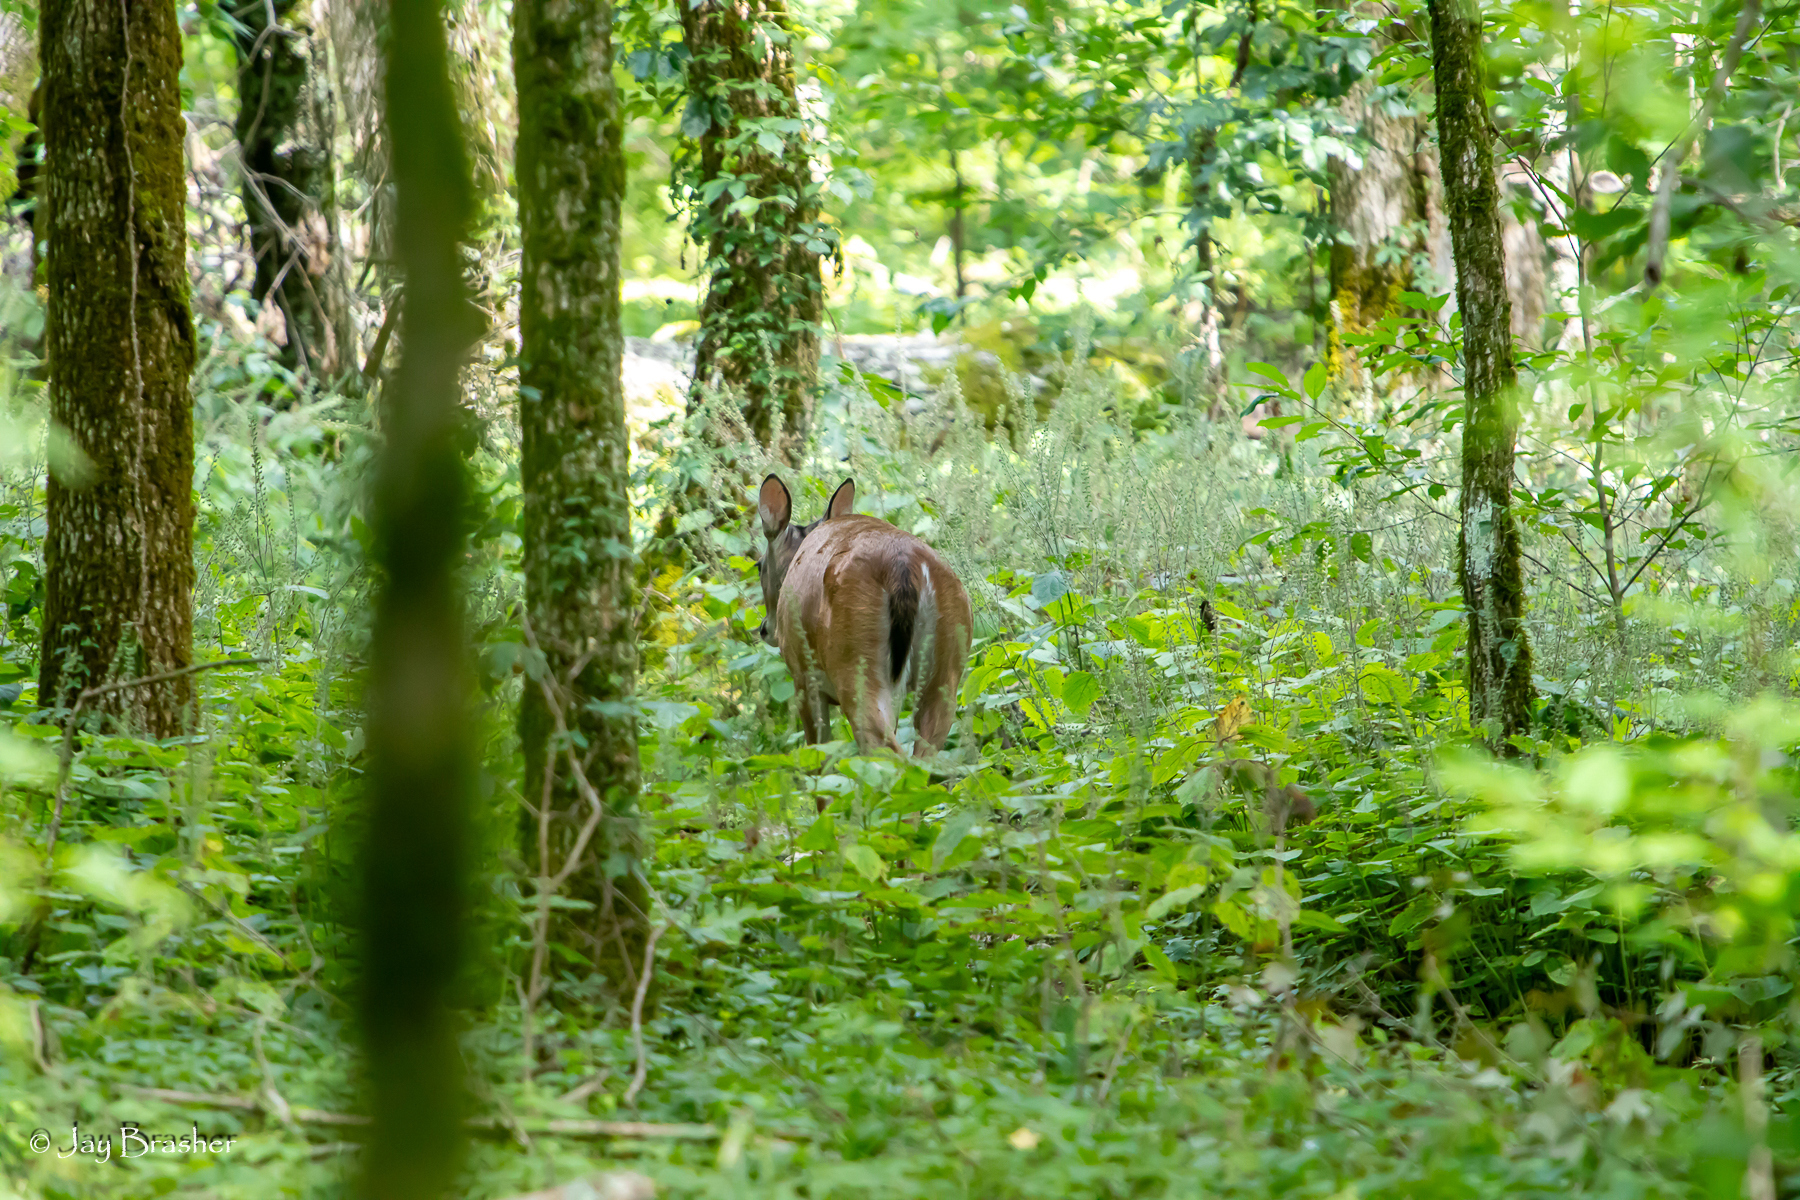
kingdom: Animalia
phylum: Chordata
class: Mammalia
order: Artiodactyla
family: Cervidae
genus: Odocoileus
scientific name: Odocoileus virginianus
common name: White-tailed deer
